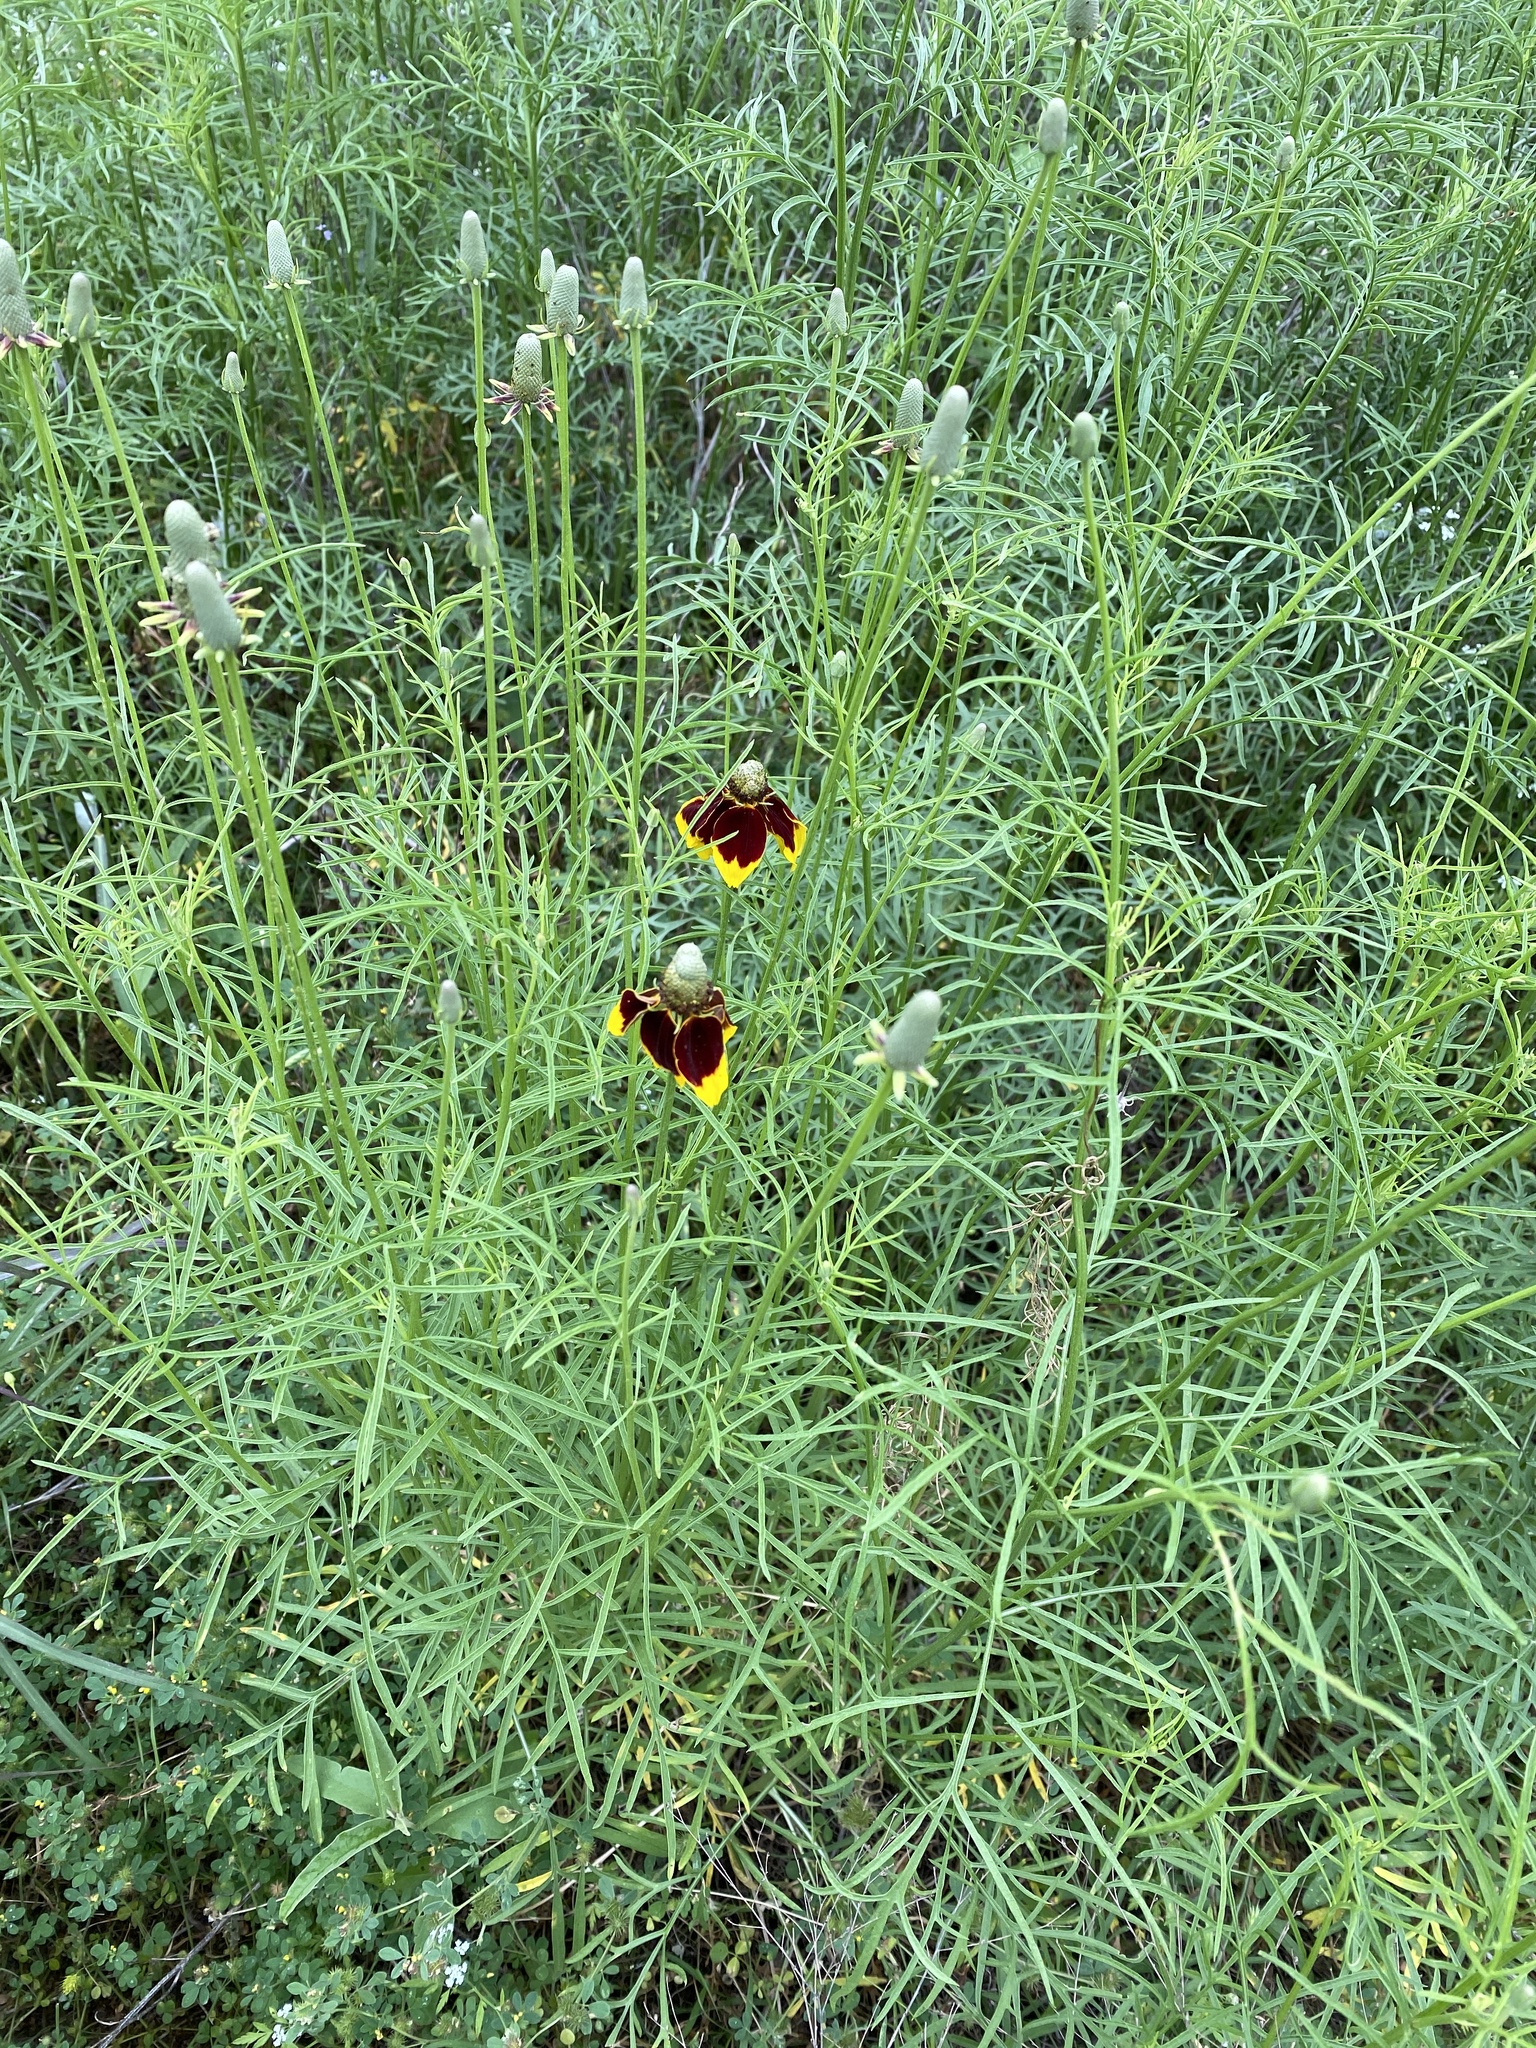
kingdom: Plantae
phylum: Tracheophyta
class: Magnoliopsida
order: Asterales
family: Asteraceae
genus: Ratibida
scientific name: Ratibida columnifera
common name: Prairie coneflower
